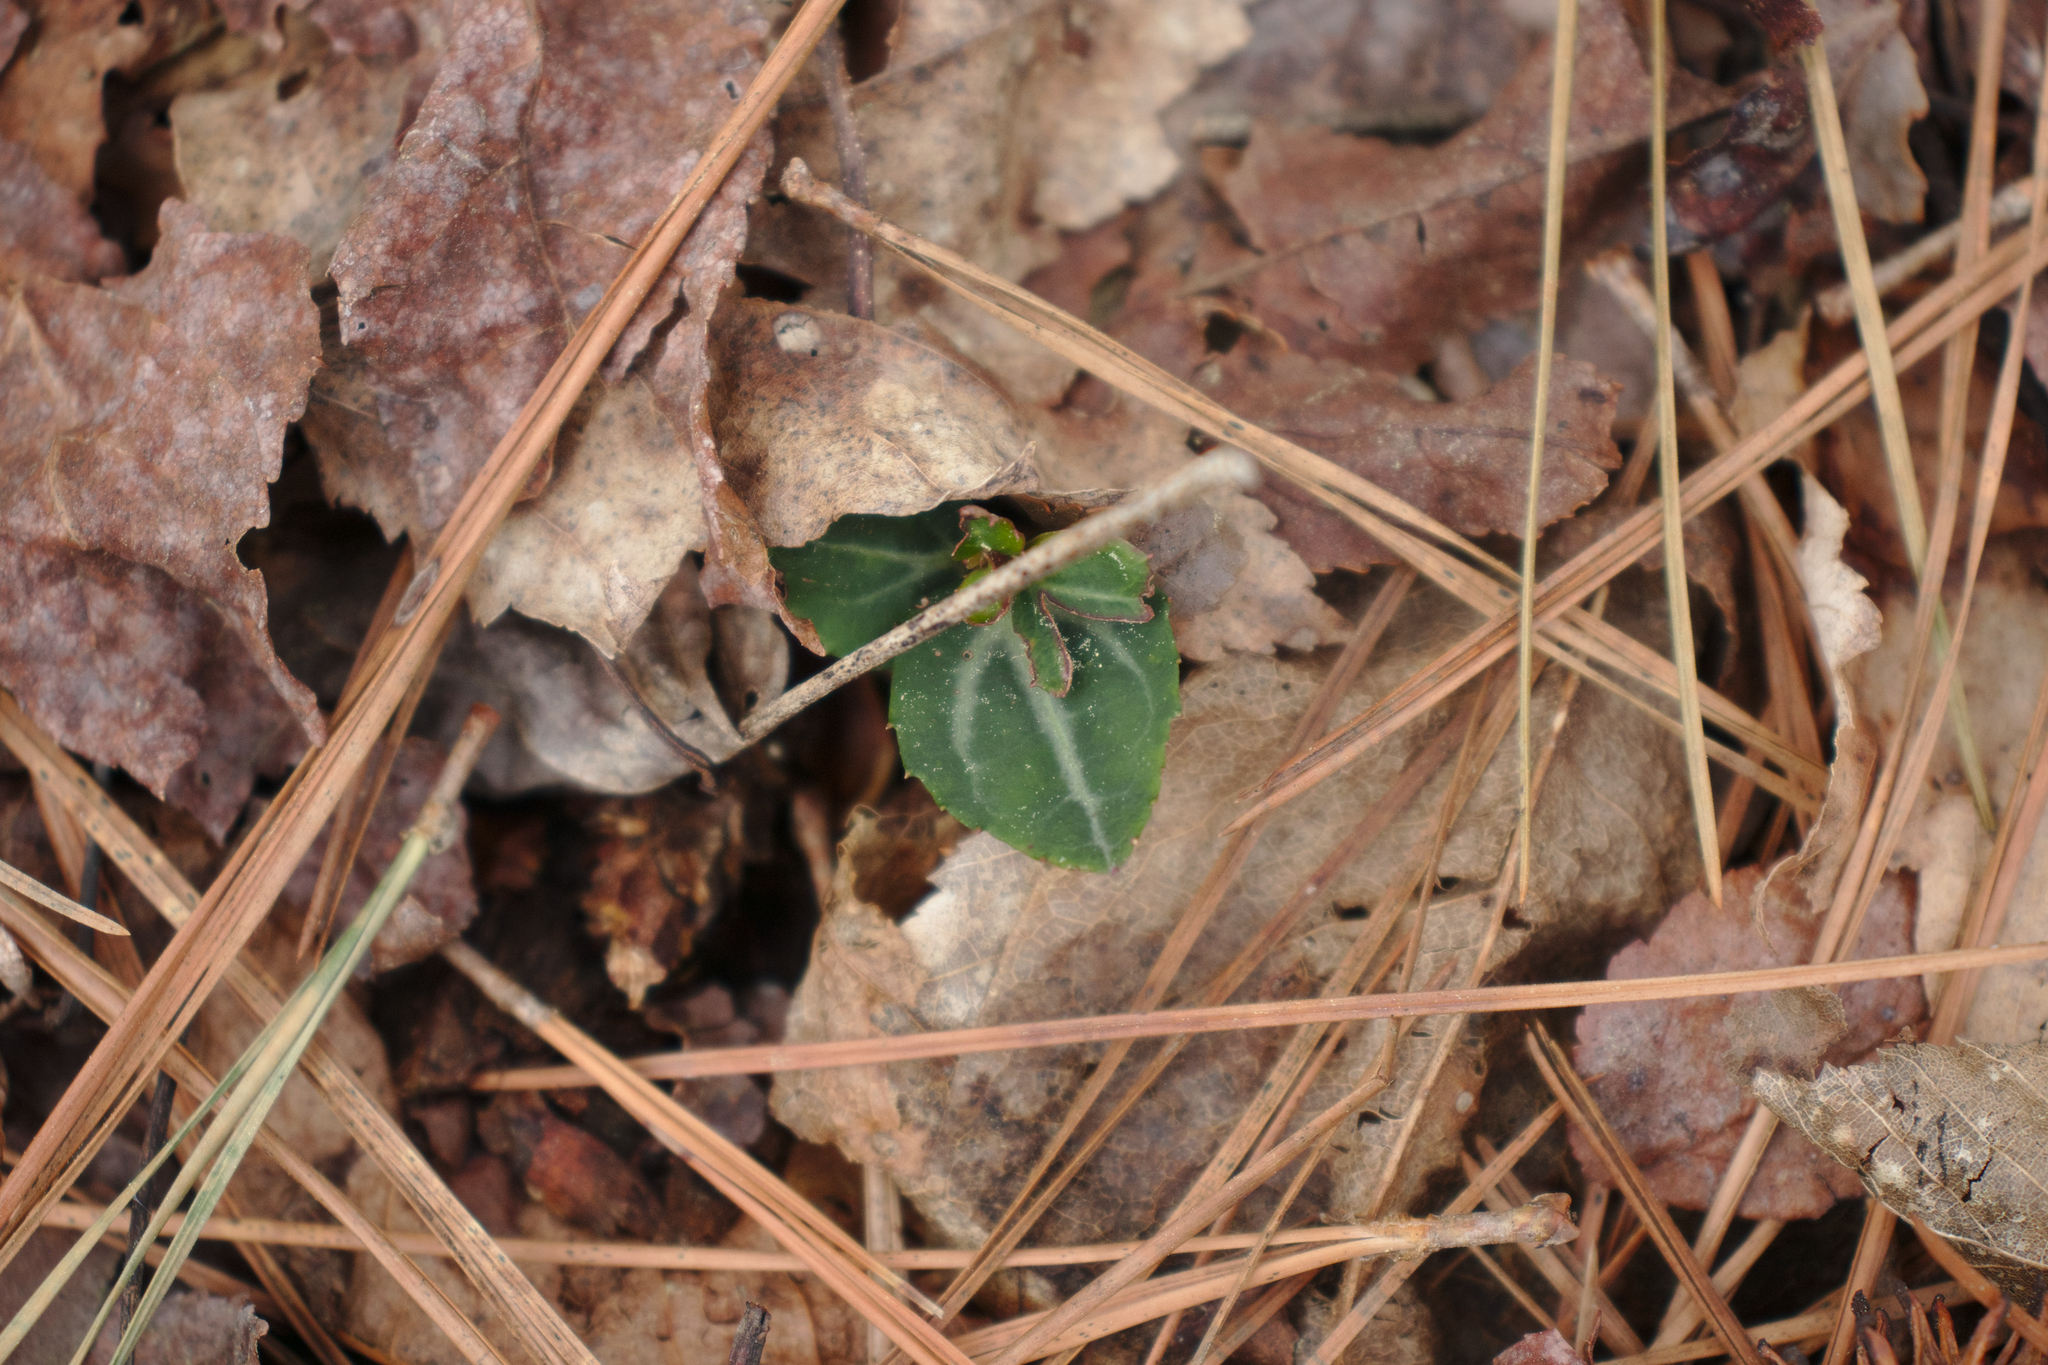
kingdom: Plantae
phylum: Tracheophyta
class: Magnoliopsida
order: Ericales
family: Ericaceae
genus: Chimaphila
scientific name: Chimaphila maculata
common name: Spotted pipsissewa
